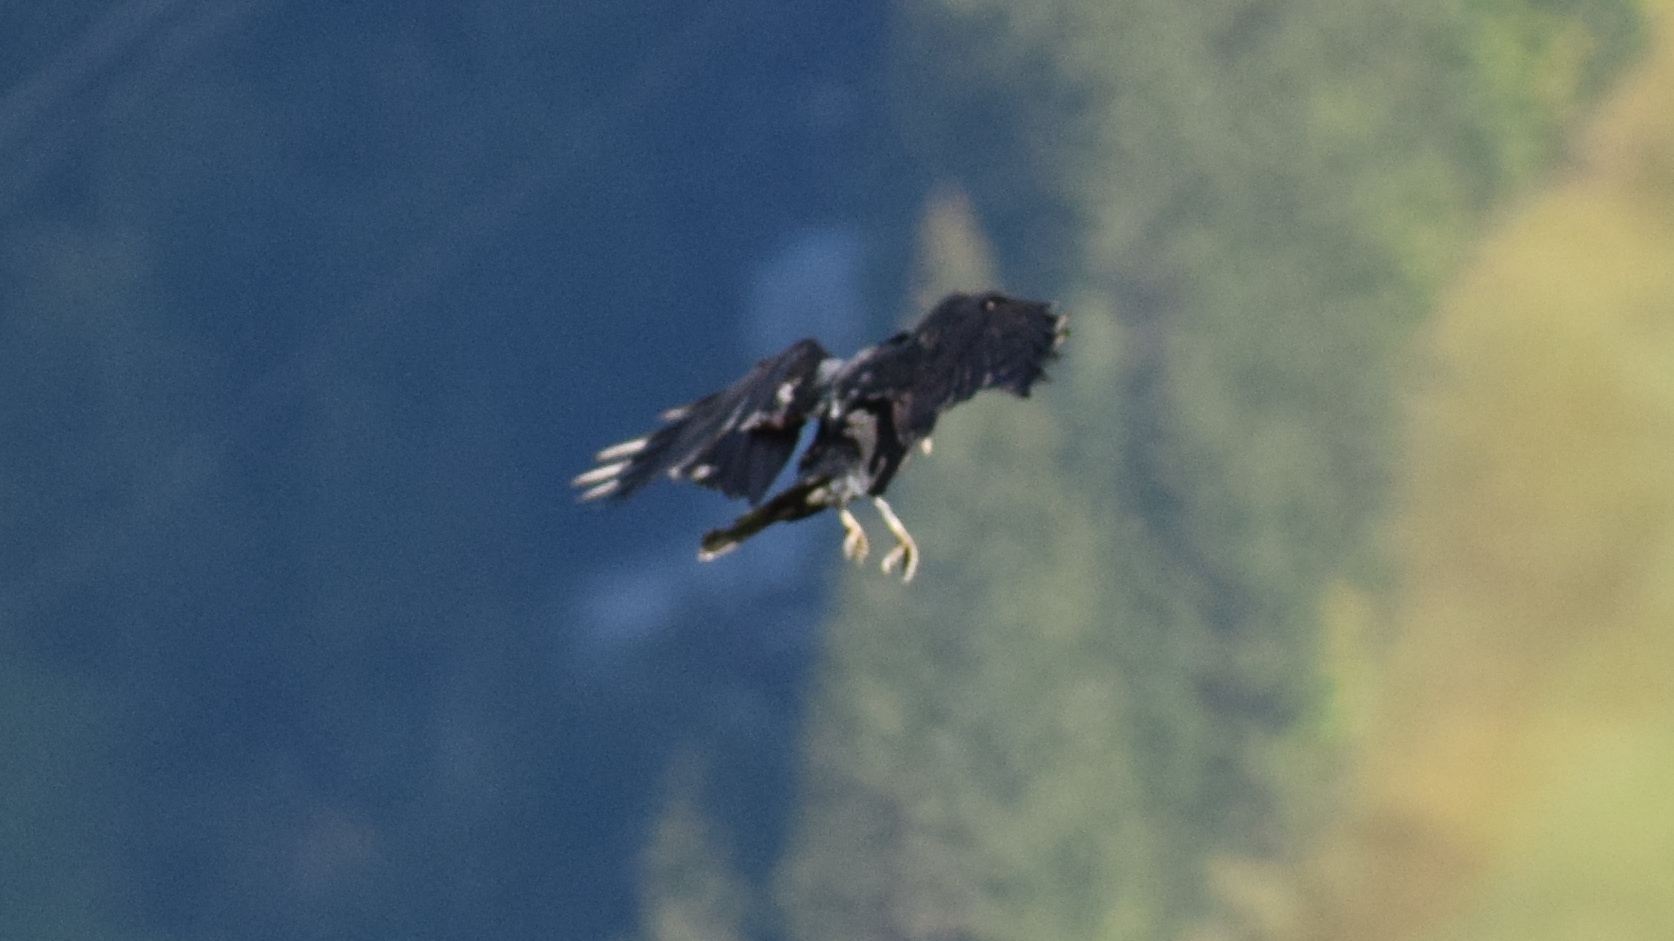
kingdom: Animalia
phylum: Chordata
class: Aves
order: Passeriformes
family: Corvidae
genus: Corvus
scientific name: Corvus frugilegus
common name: Rook
